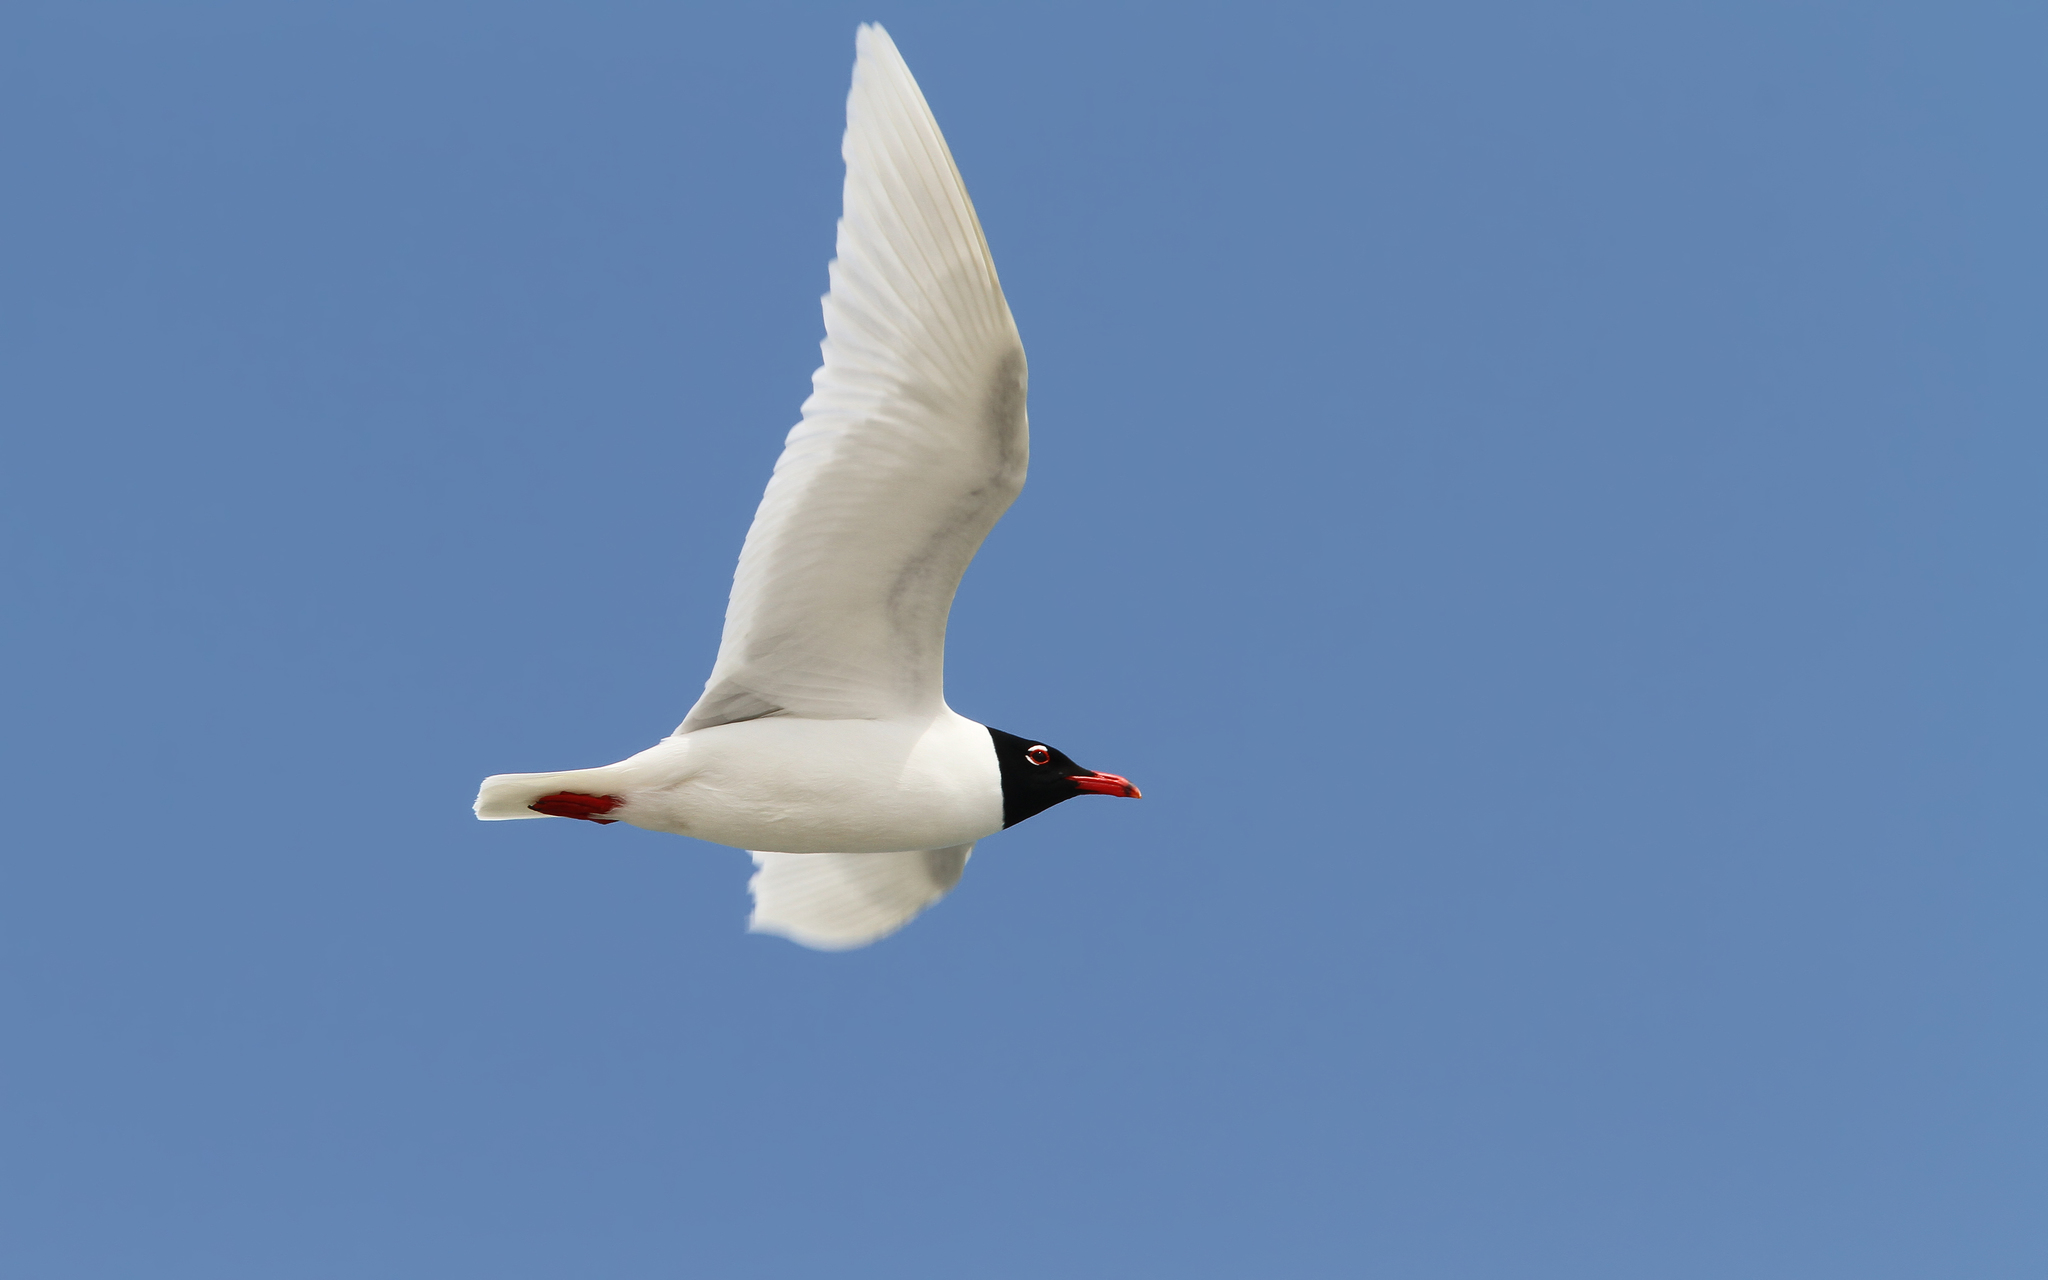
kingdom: Animalia
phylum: Chordata
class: Aves
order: Charadriiformes
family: Laridae
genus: Ichthyaetus
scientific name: Ichthyaetus melanocephalus
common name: Mediterranean gull
